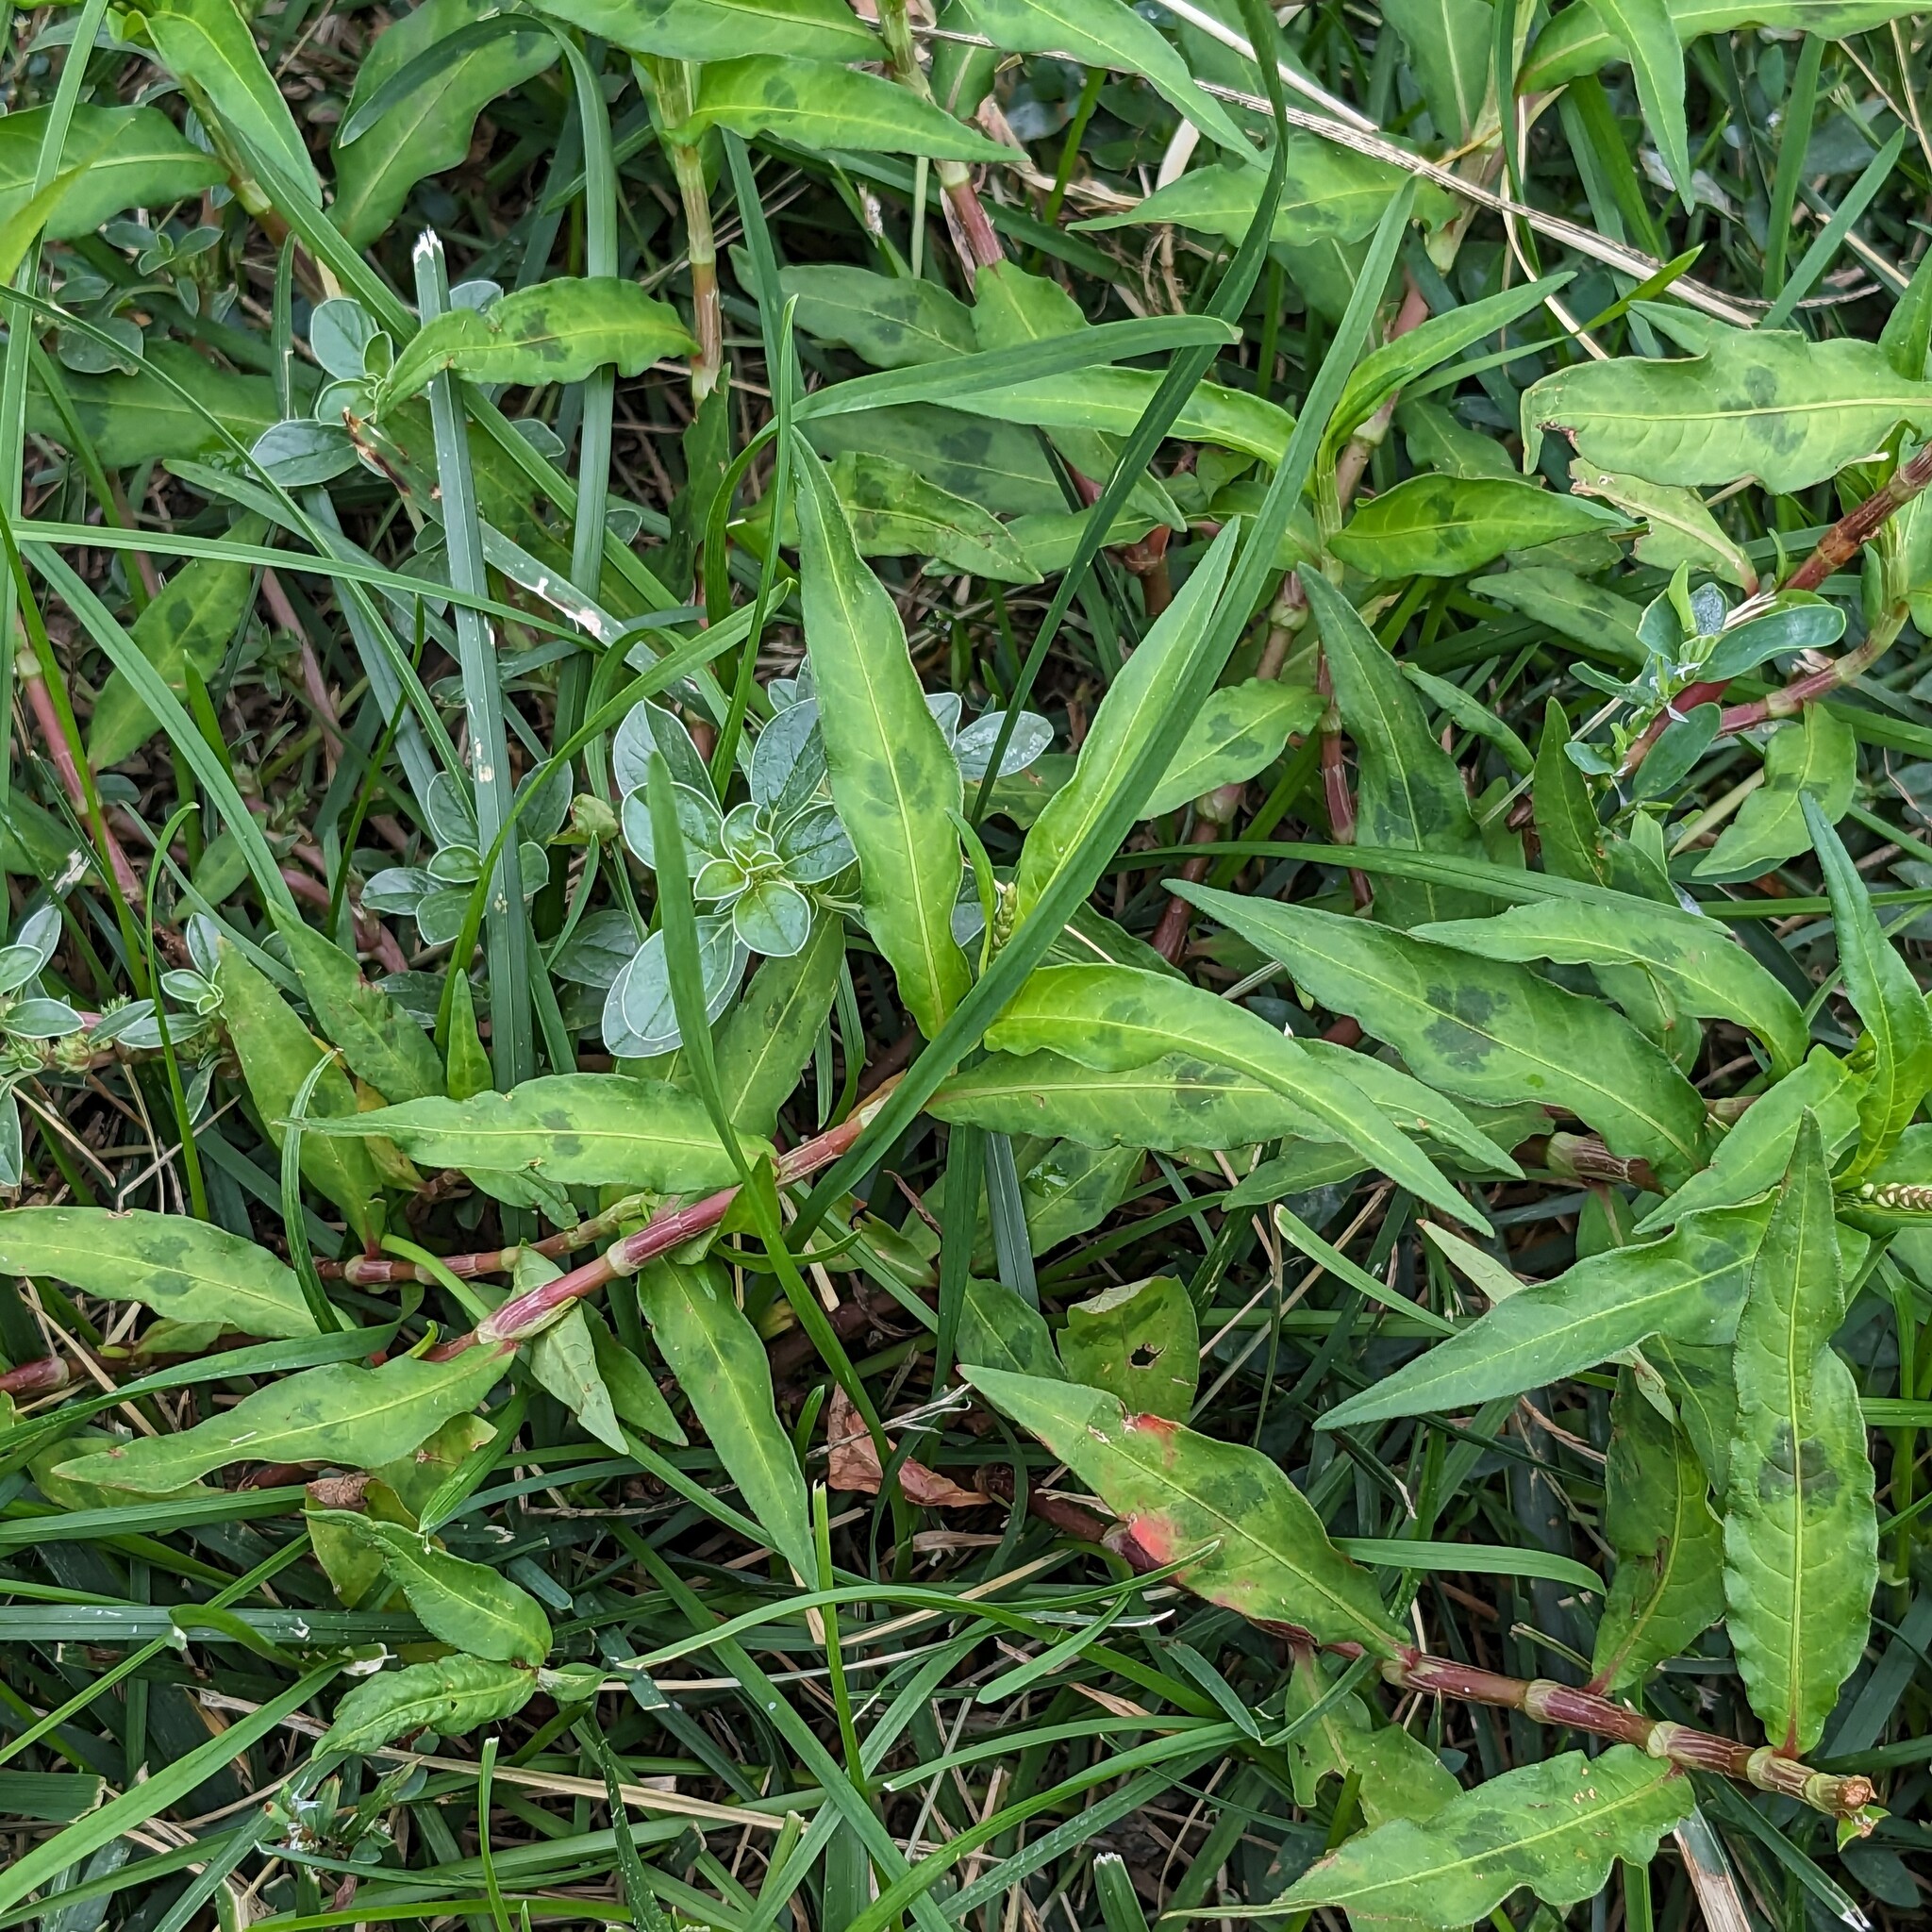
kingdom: Plantae
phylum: Tracheophyta
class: Magnoliopsida
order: Caryophyllales
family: Polygonaceae
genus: Persicaria
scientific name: Persicaria maculosa
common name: Redshank
